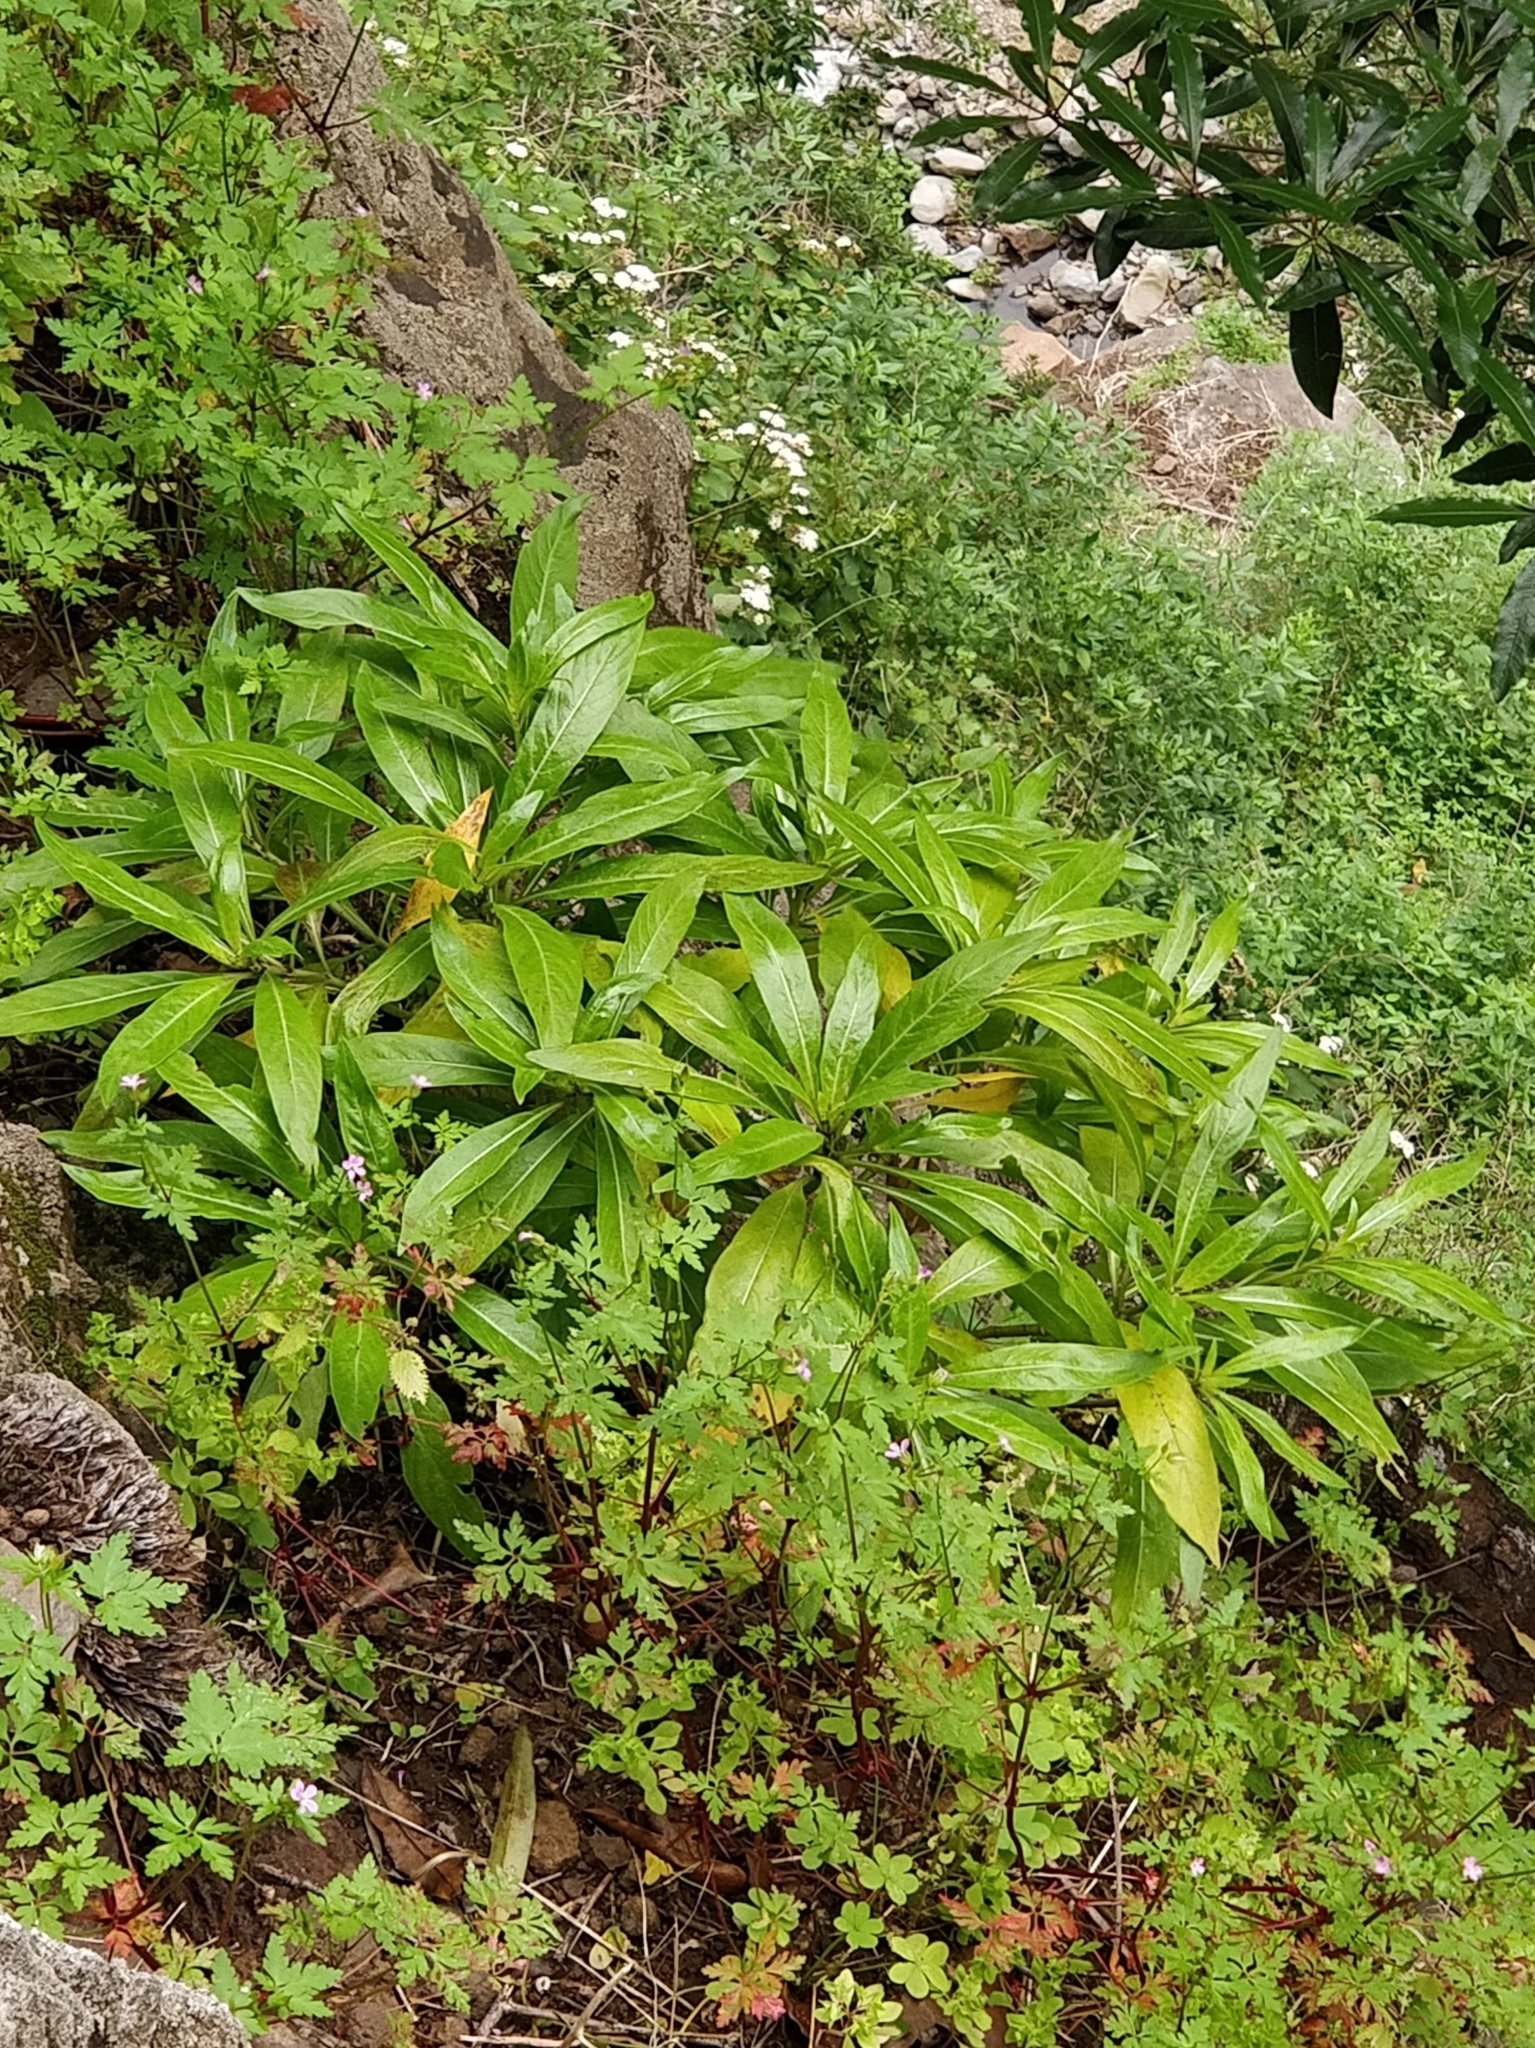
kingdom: Plantae
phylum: Tracheophyta
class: Magnoliopsida
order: Gentianales
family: Rubiaceae
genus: Phyllis
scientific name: Phyllis nobla
